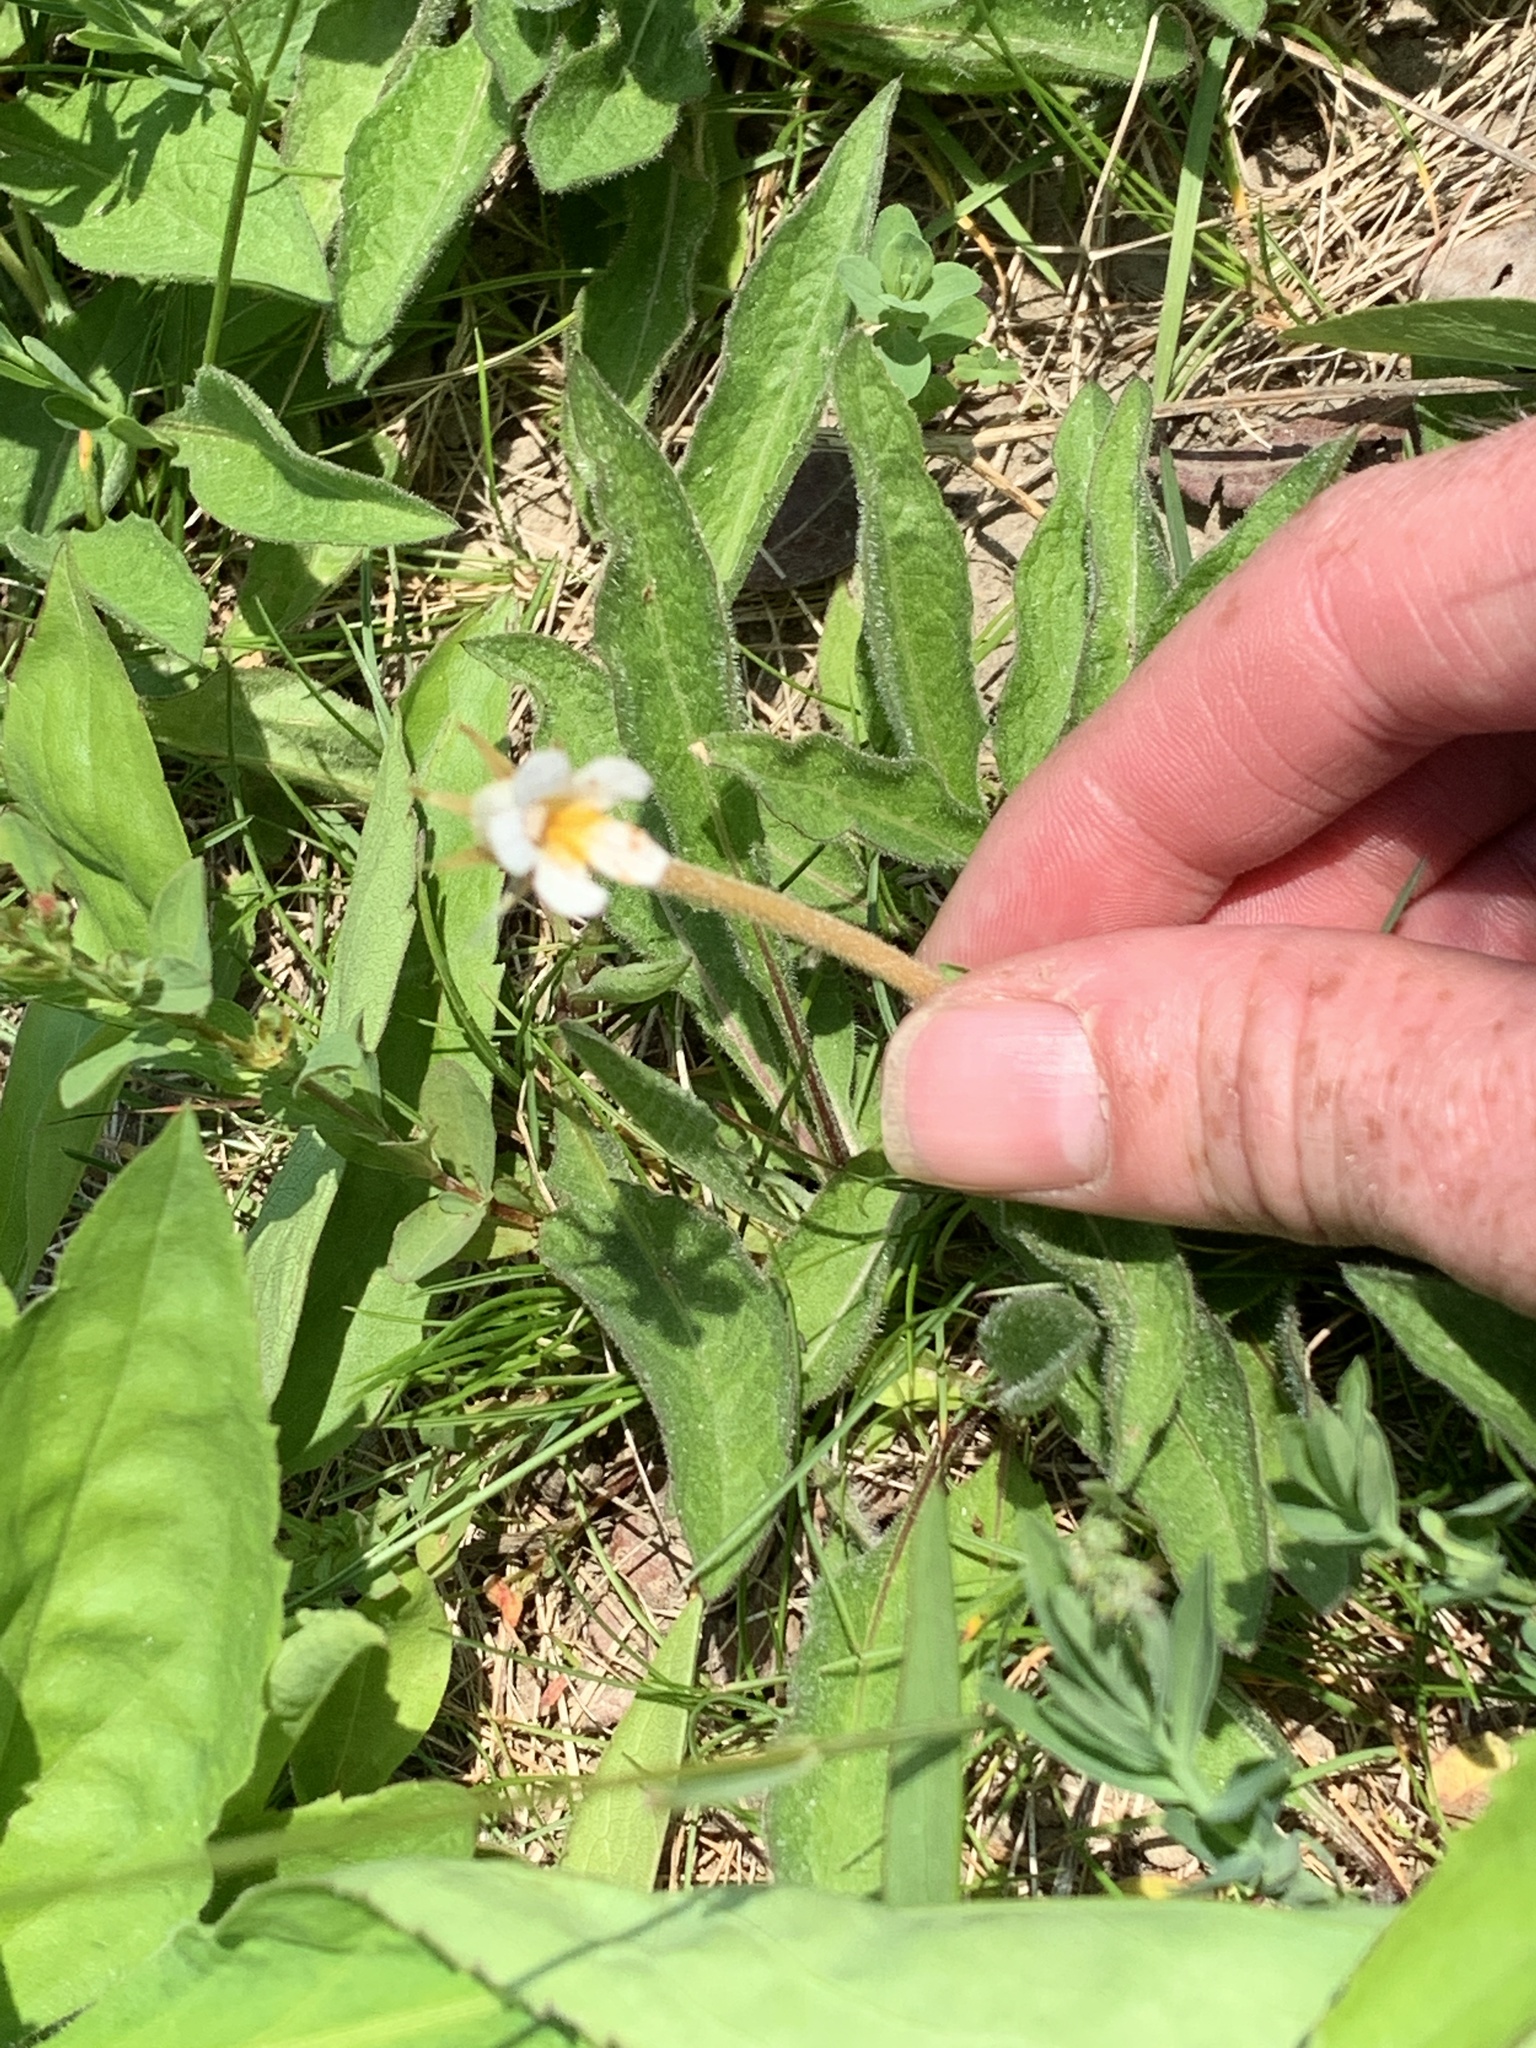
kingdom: Plantae
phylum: Tracheophyta
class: Magnoliopsida
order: Lamiales
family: Orobanchaceae
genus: Aphyllon
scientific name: Aphyllon uniflorum
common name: One-flowered broomrape
